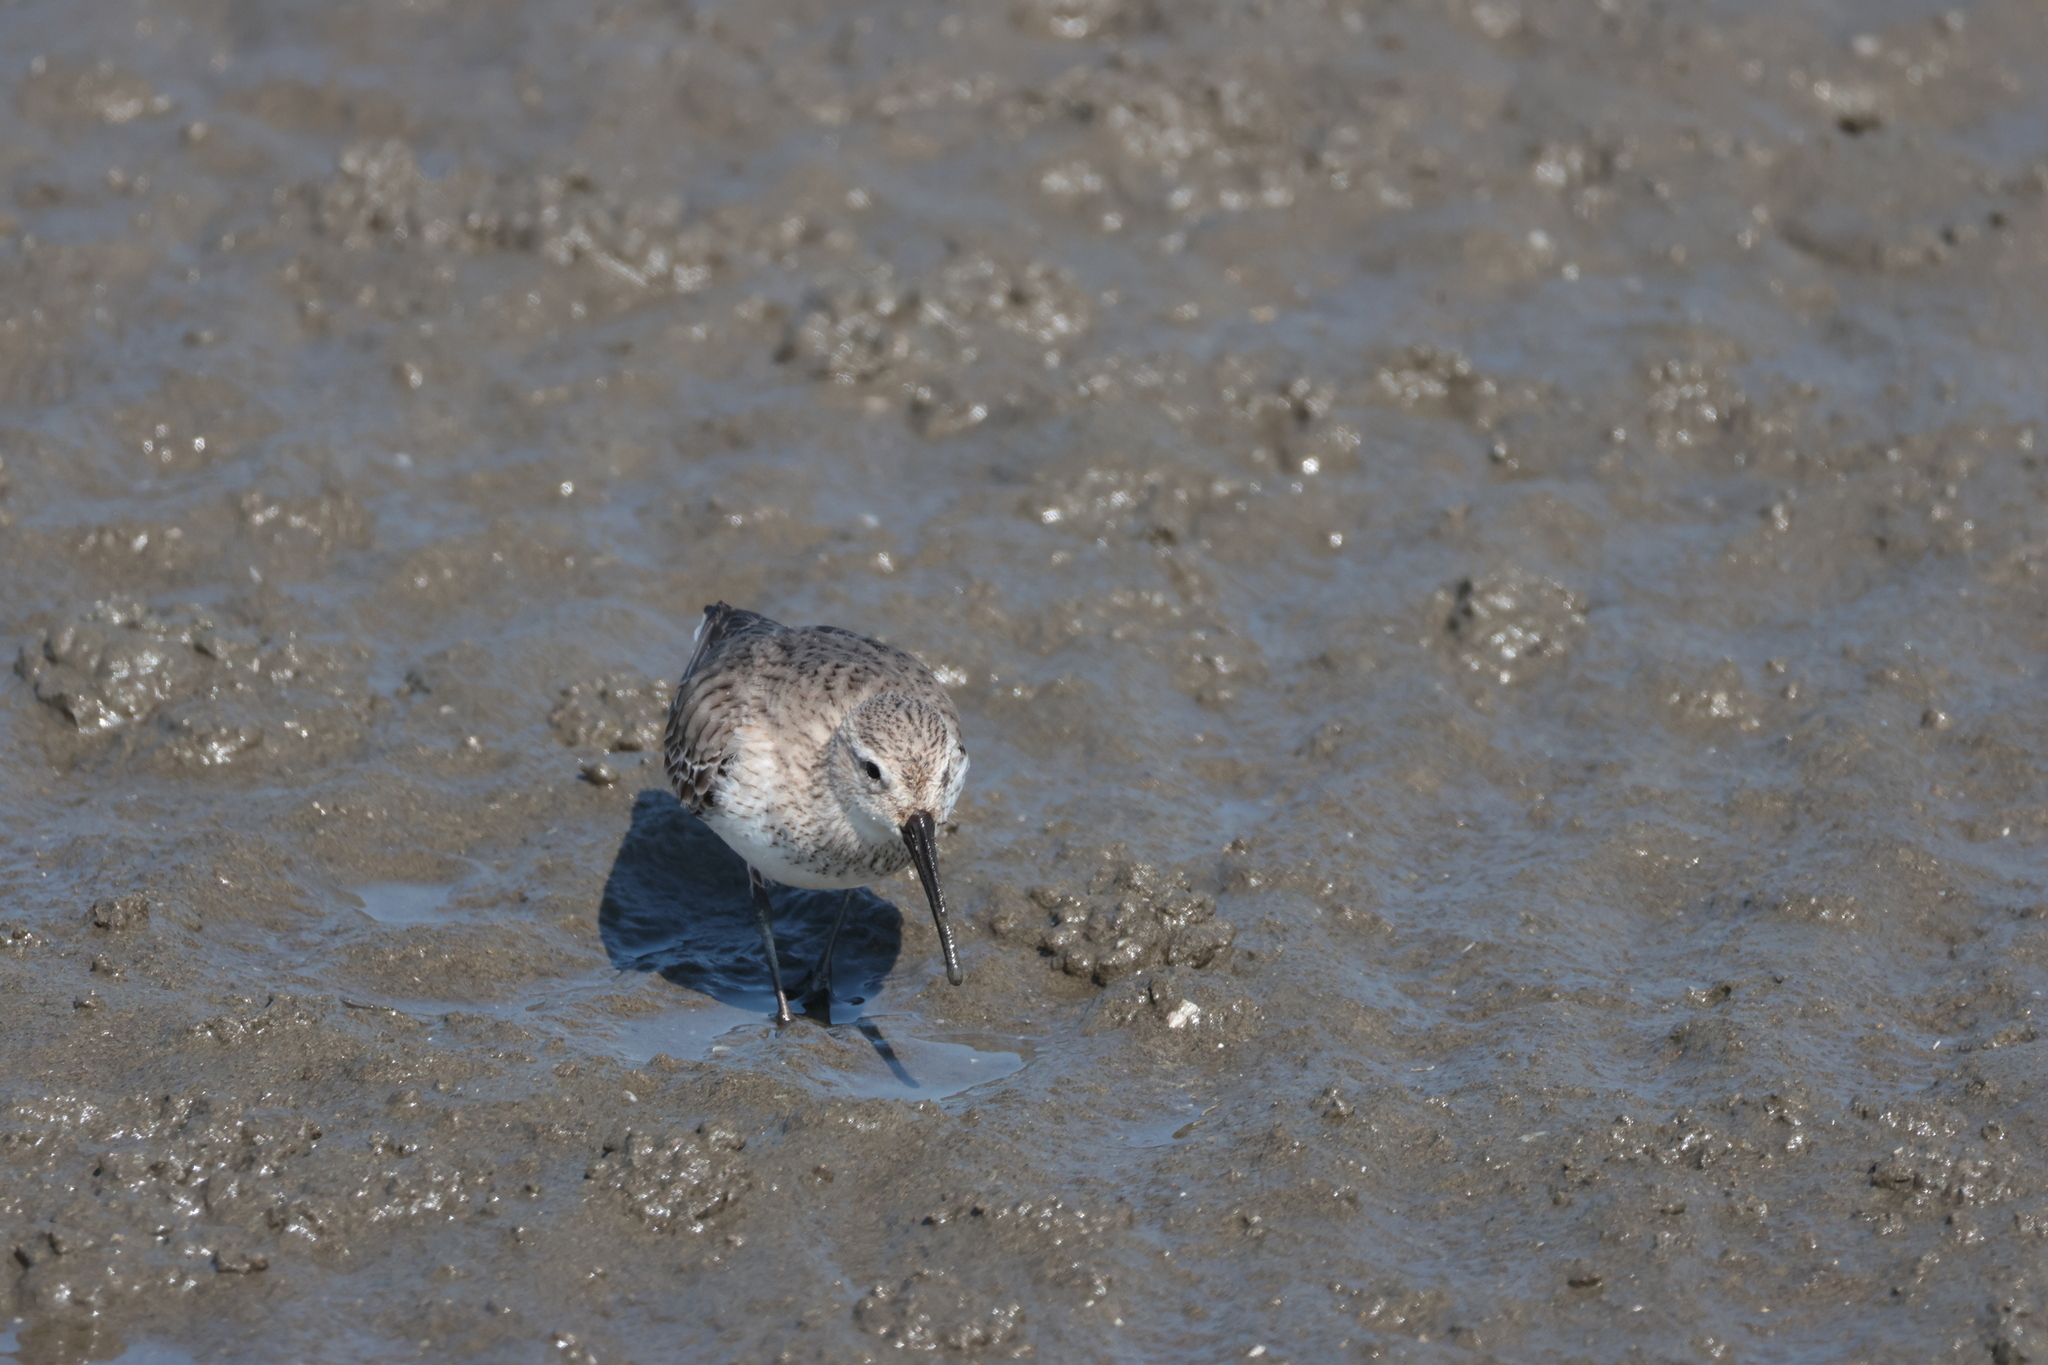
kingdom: Animalia
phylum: Chordata
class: Aves
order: Charadriiformes
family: Scolopacidae
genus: Calidris
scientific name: Calidris alpina
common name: Dunlin
